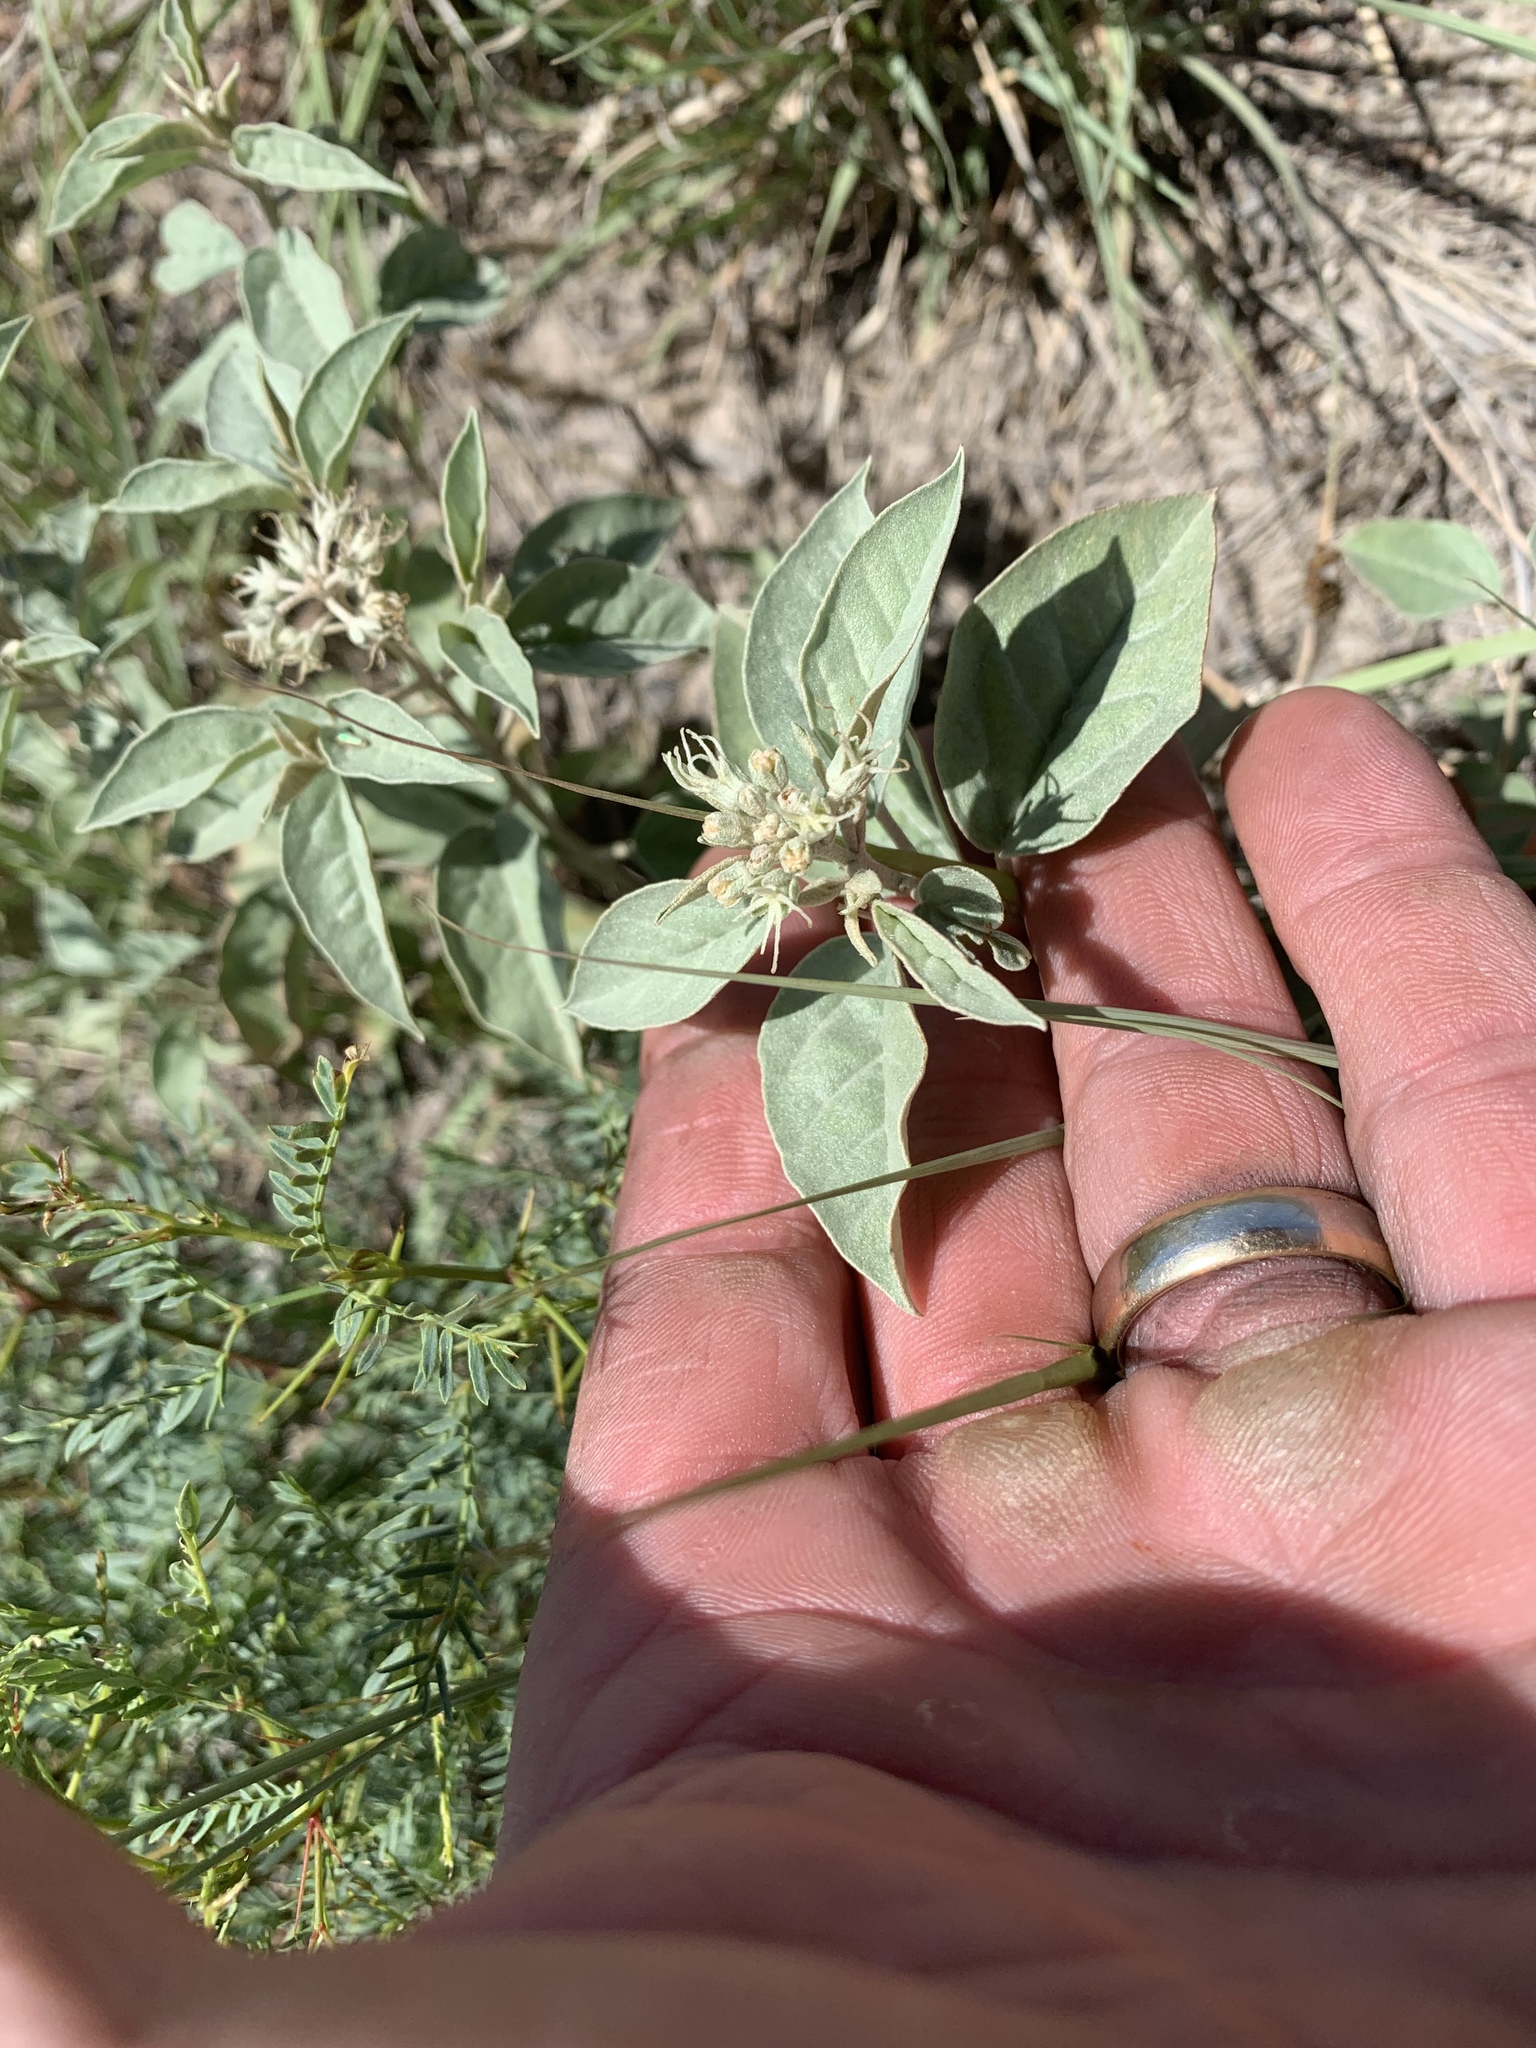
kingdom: Plantae
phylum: Tracheophyta
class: Magnoliopsida
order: Malpighiales
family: Euphorbiaceae
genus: Croton
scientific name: Croton pottsii
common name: Leatherweed
